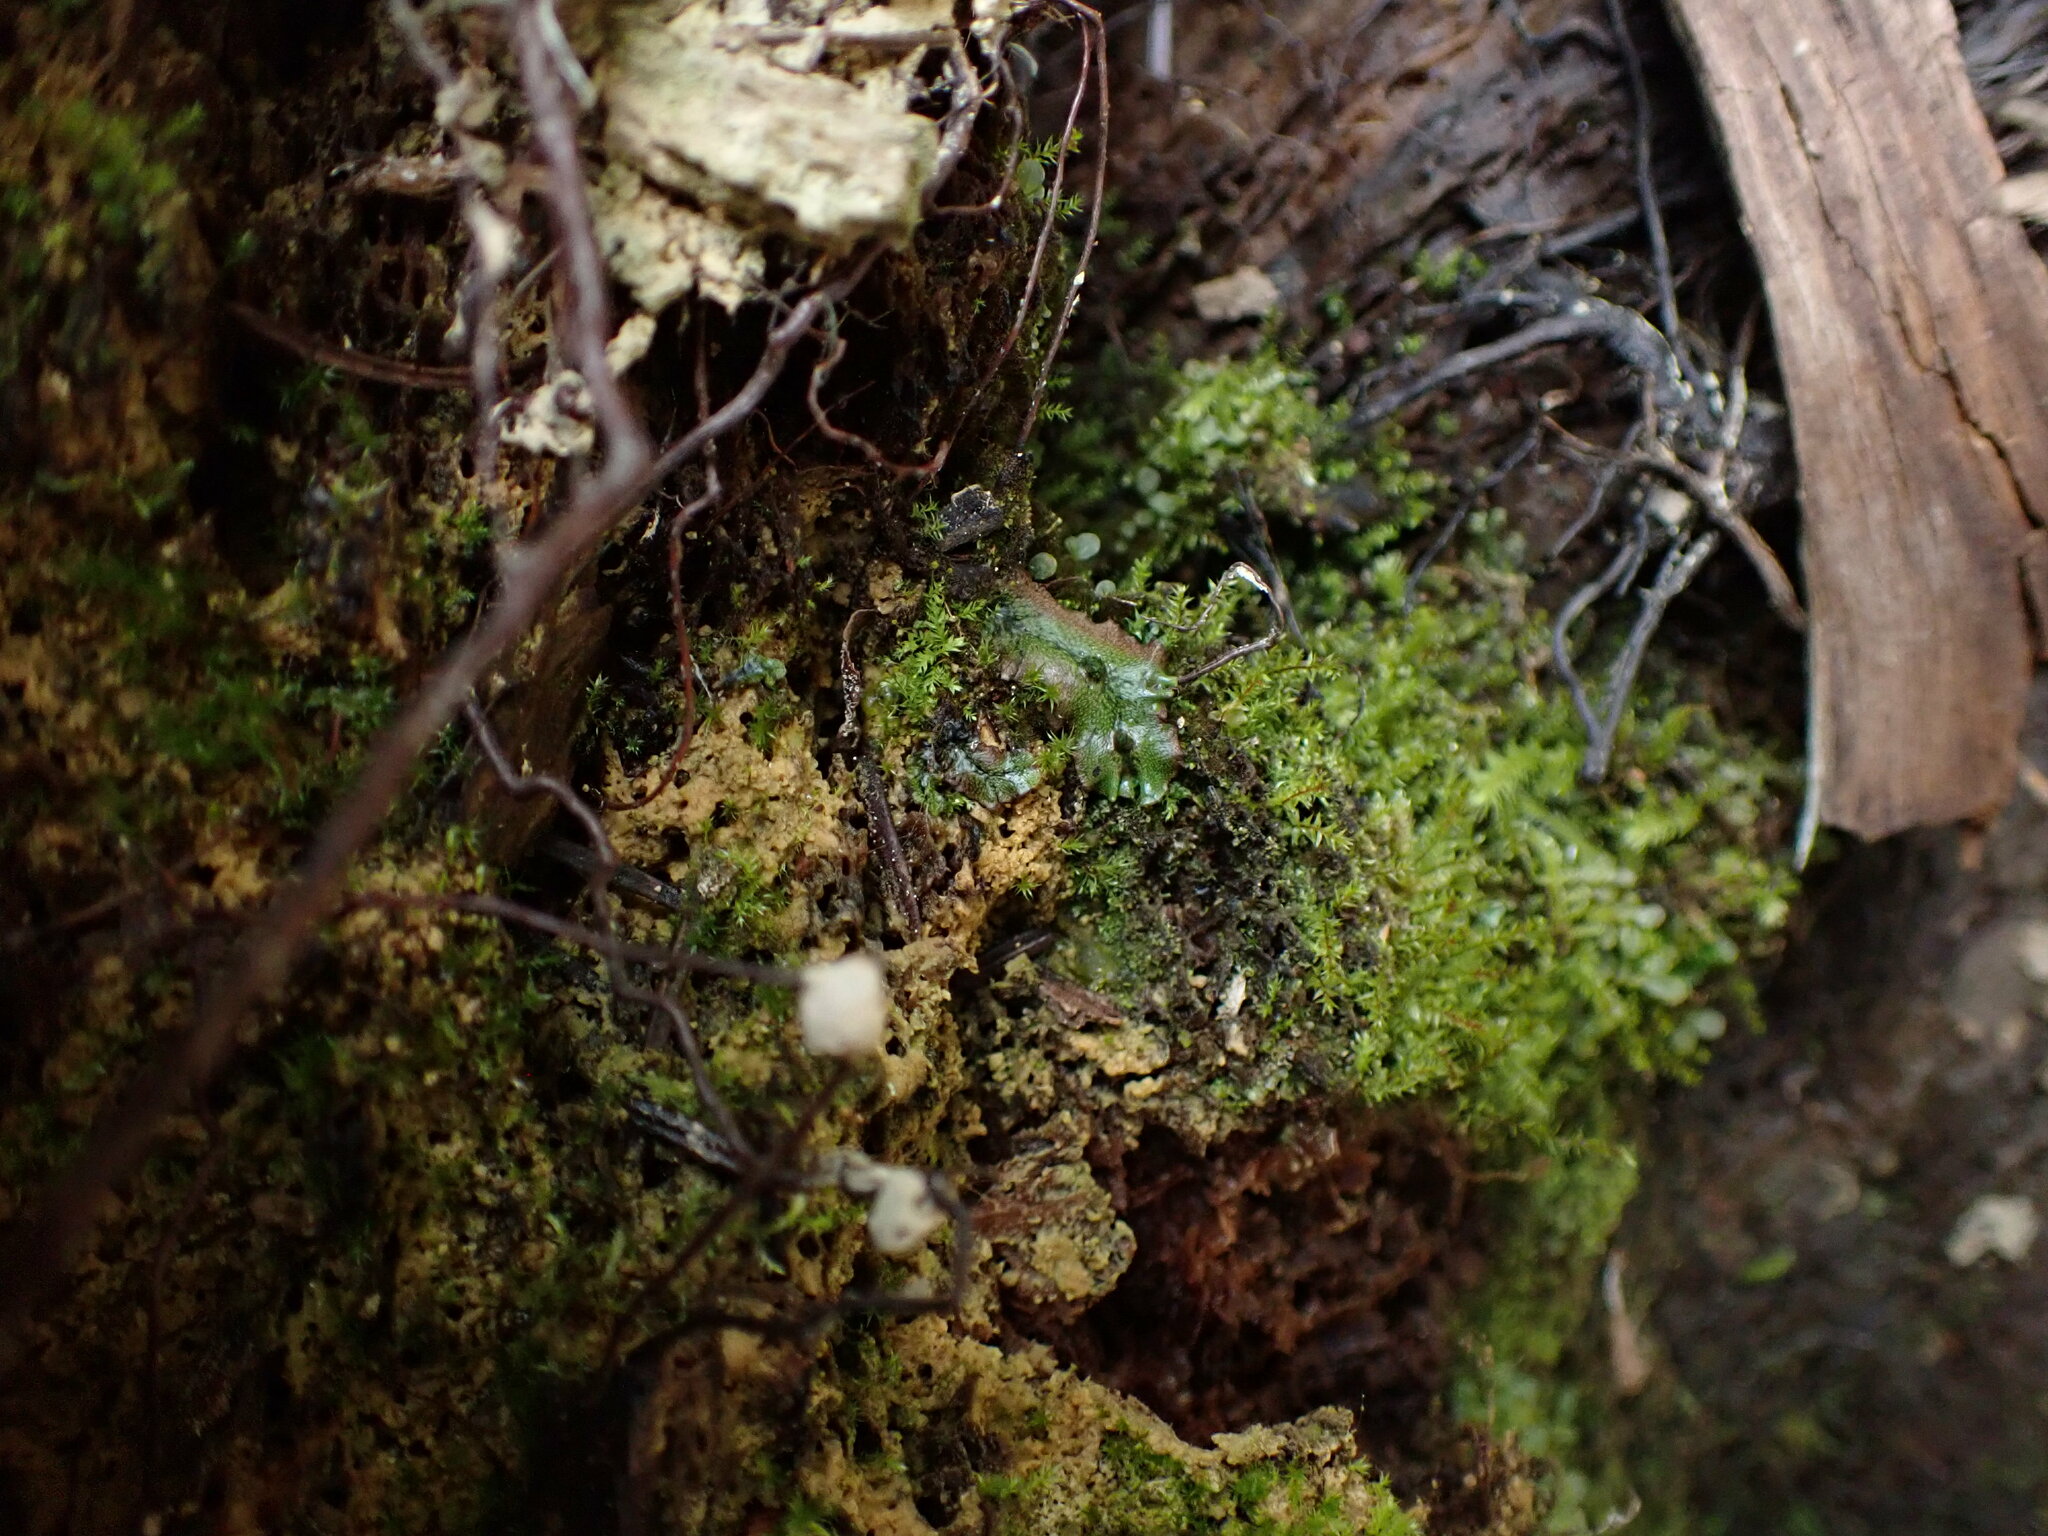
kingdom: Plantae
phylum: Marchantiophyta
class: Marchantiopsida
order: Marchantiales
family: Marchantiaceae
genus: Marchantia
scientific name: Marchantia polymorpha
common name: Common liverwort
